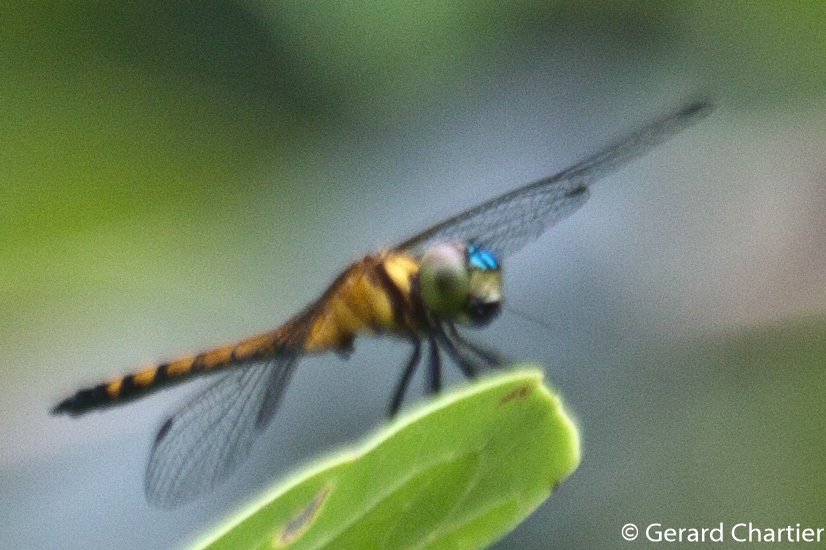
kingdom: Animalia
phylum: Arthropoda
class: Insecta
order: Odonata
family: Libellulidae
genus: Amphithemis
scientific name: Amphithemis curvistyla
